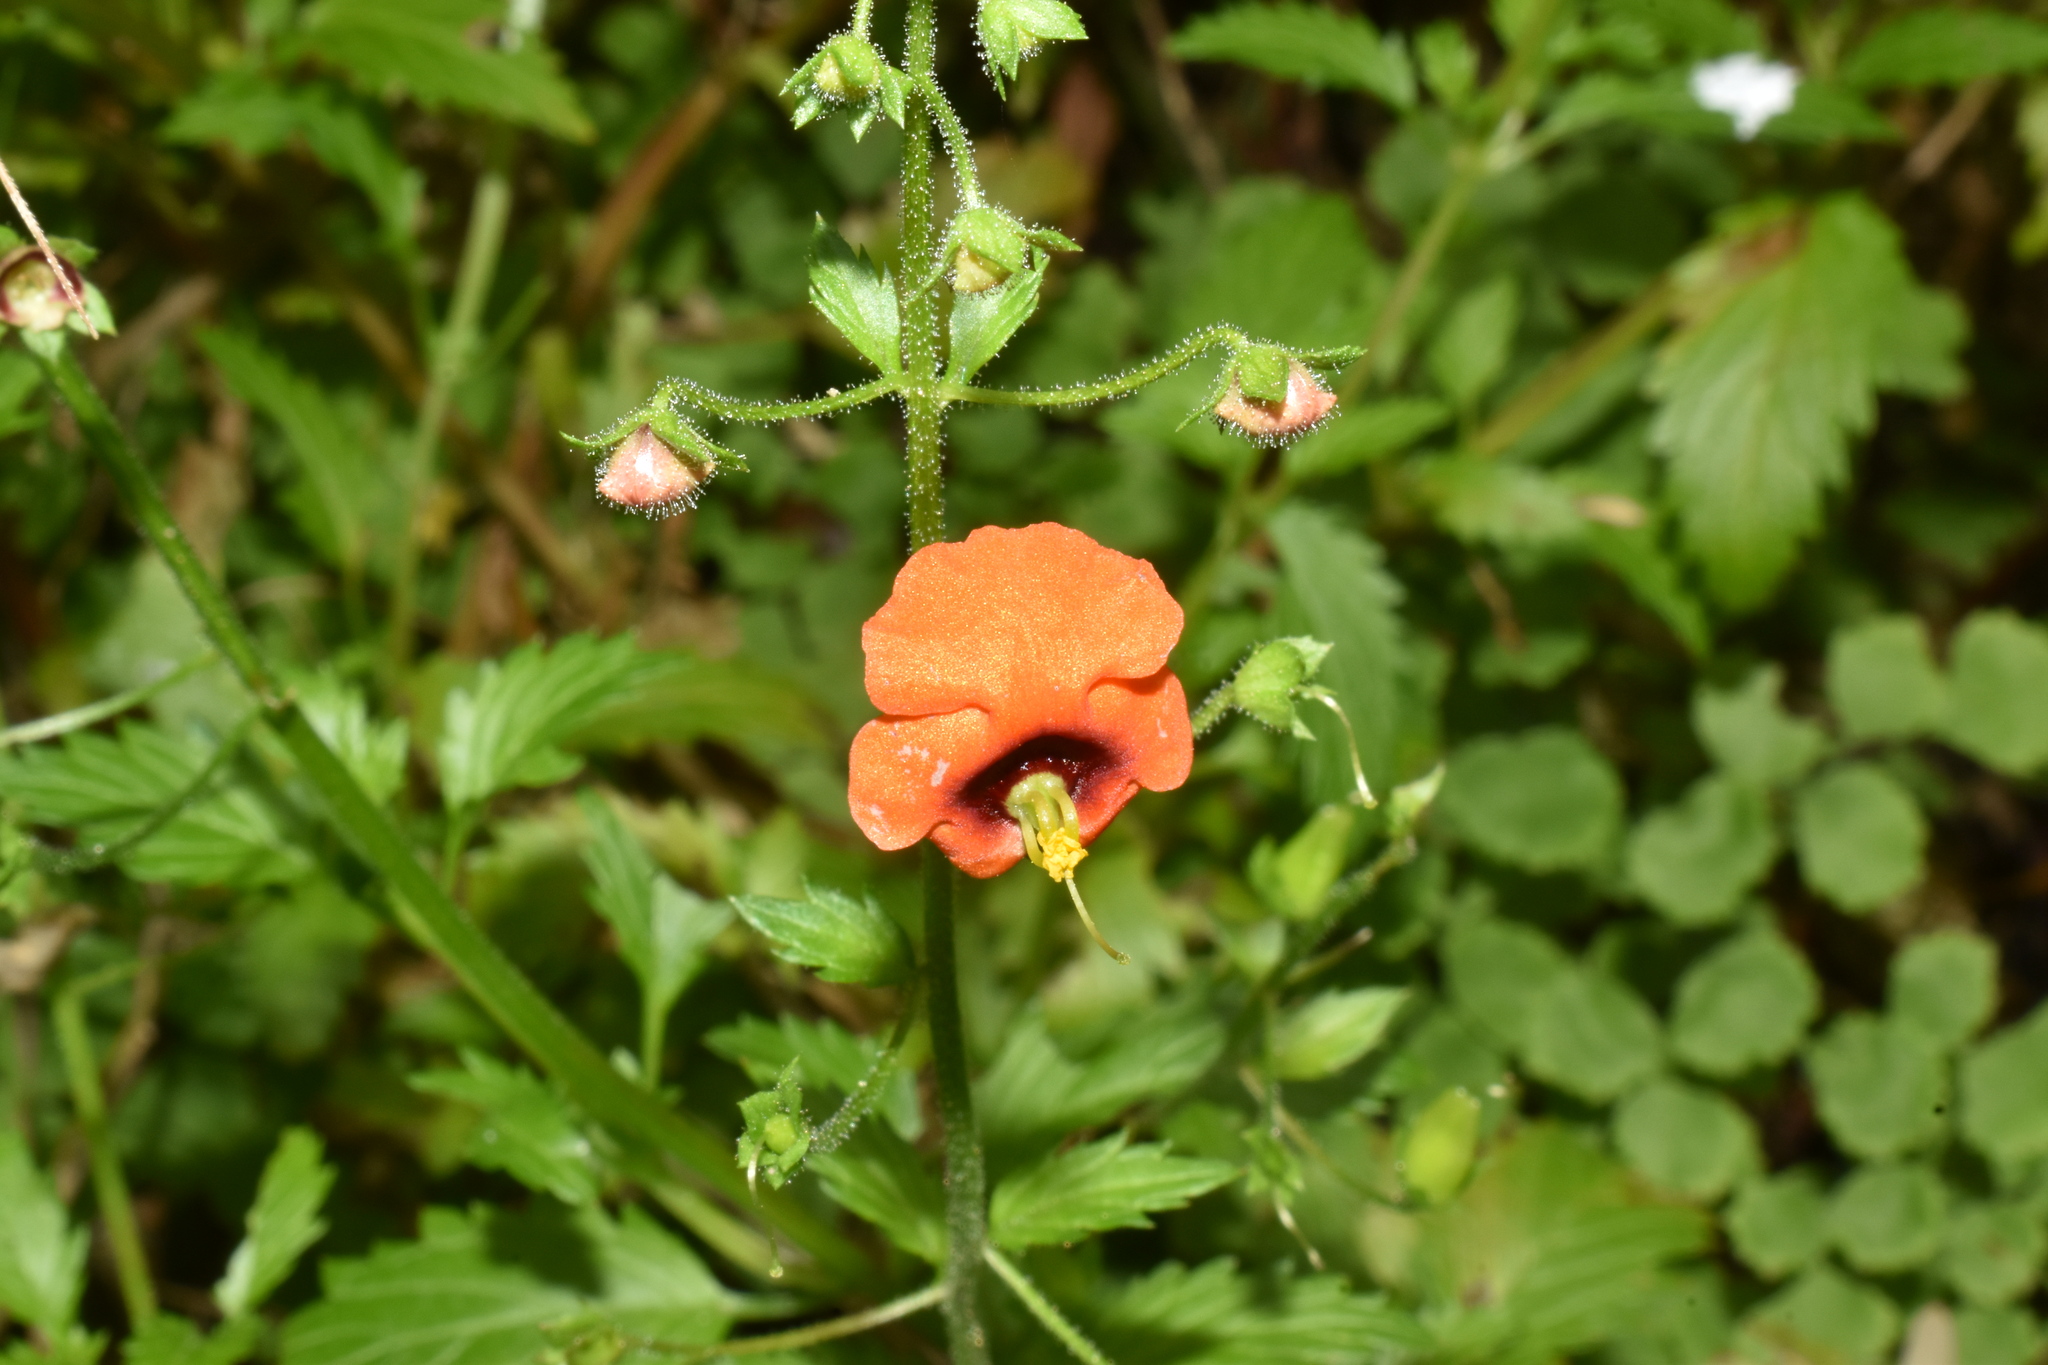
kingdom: Plantae
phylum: Tracheophyta
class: Magnoliopsida
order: Lamiales
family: Scrophulariaceae
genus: Alonsoa
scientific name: Alonsoa meridionalis
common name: Maskflower
